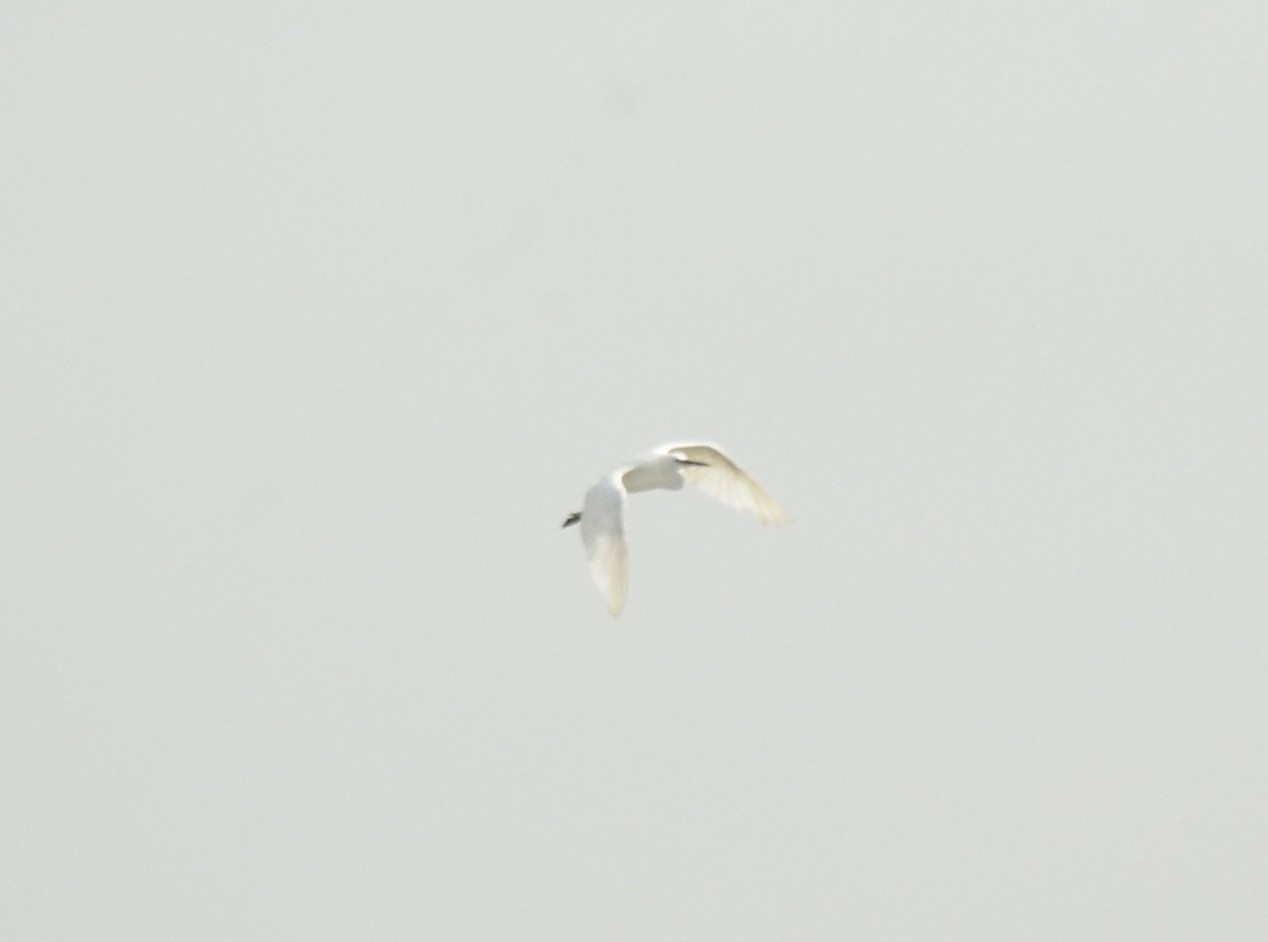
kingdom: Animalia
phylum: Chordata
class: Aves
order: Pelecaniformes
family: Ardeidae
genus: Egretta
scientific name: Egretta garzetta
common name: Little egret
